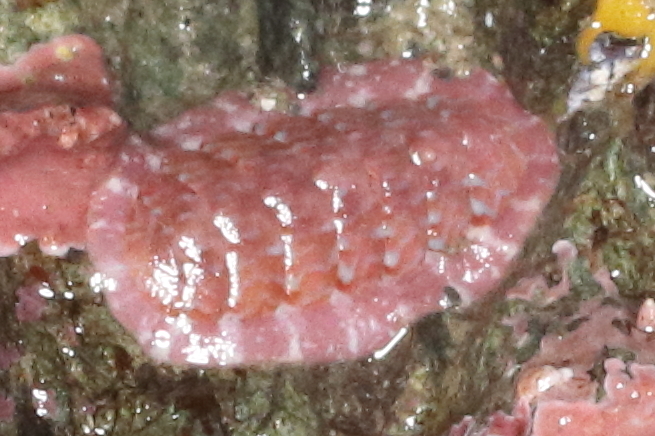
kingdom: Animalia
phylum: Mollusca
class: Polyplacophora
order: Chitonida
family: Tonicellidae
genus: Tonicella
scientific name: Tonicella venusta
